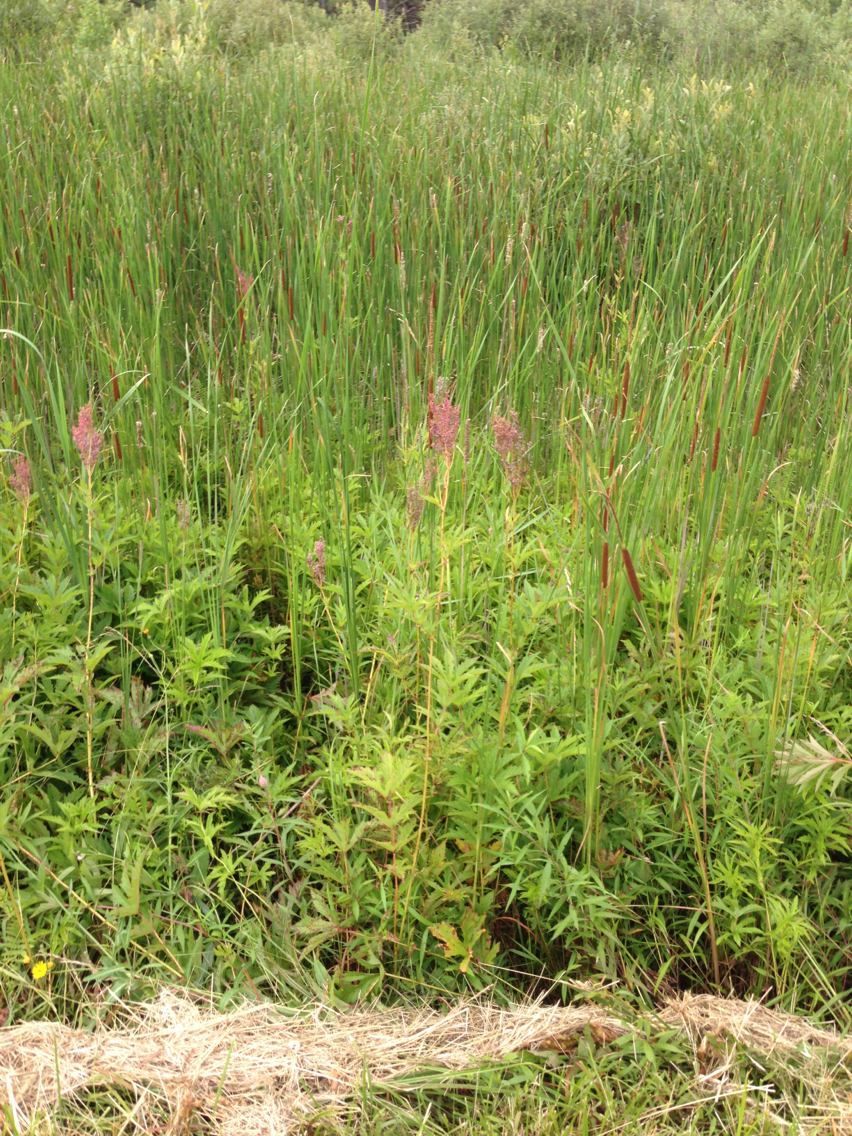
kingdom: Plantae
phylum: Tracheophyta
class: Magnoliopsida
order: Rosales
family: Rosaceae
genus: Filipendula
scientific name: Filipendula rubra
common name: Queen-of-the-prairie
